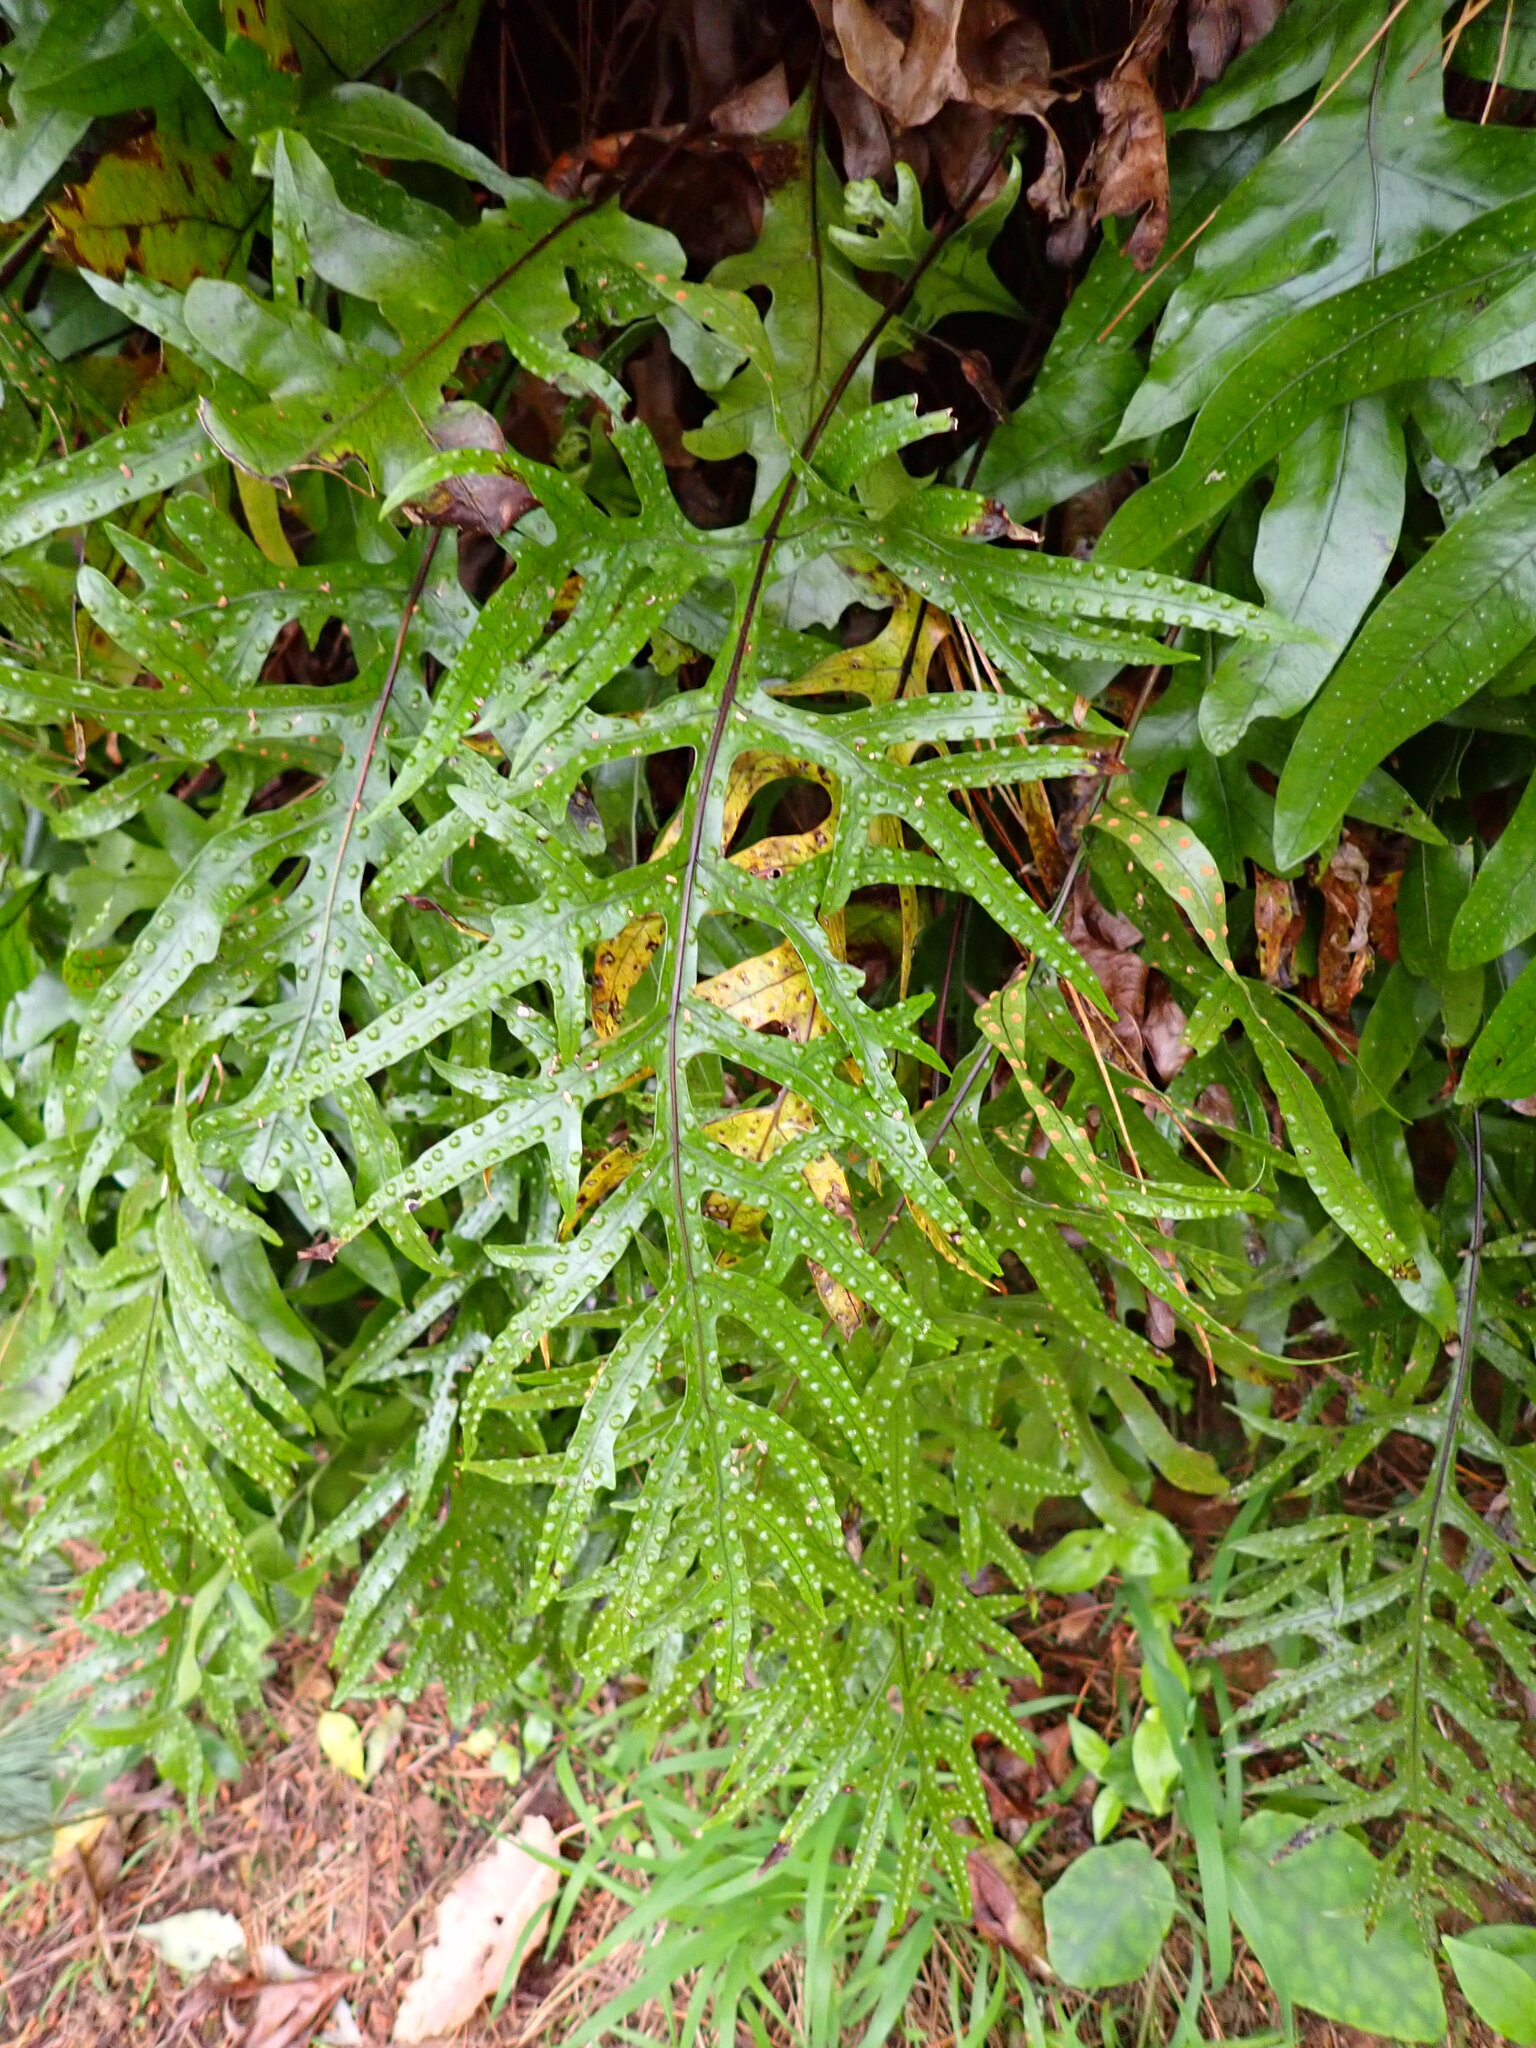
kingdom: Plantae
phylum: Tracheophyta
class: Polypodiopsida
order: Polypodiales
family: Polypodiaceae
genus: Lecanopteris
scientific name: Lecanopteris pustulata
